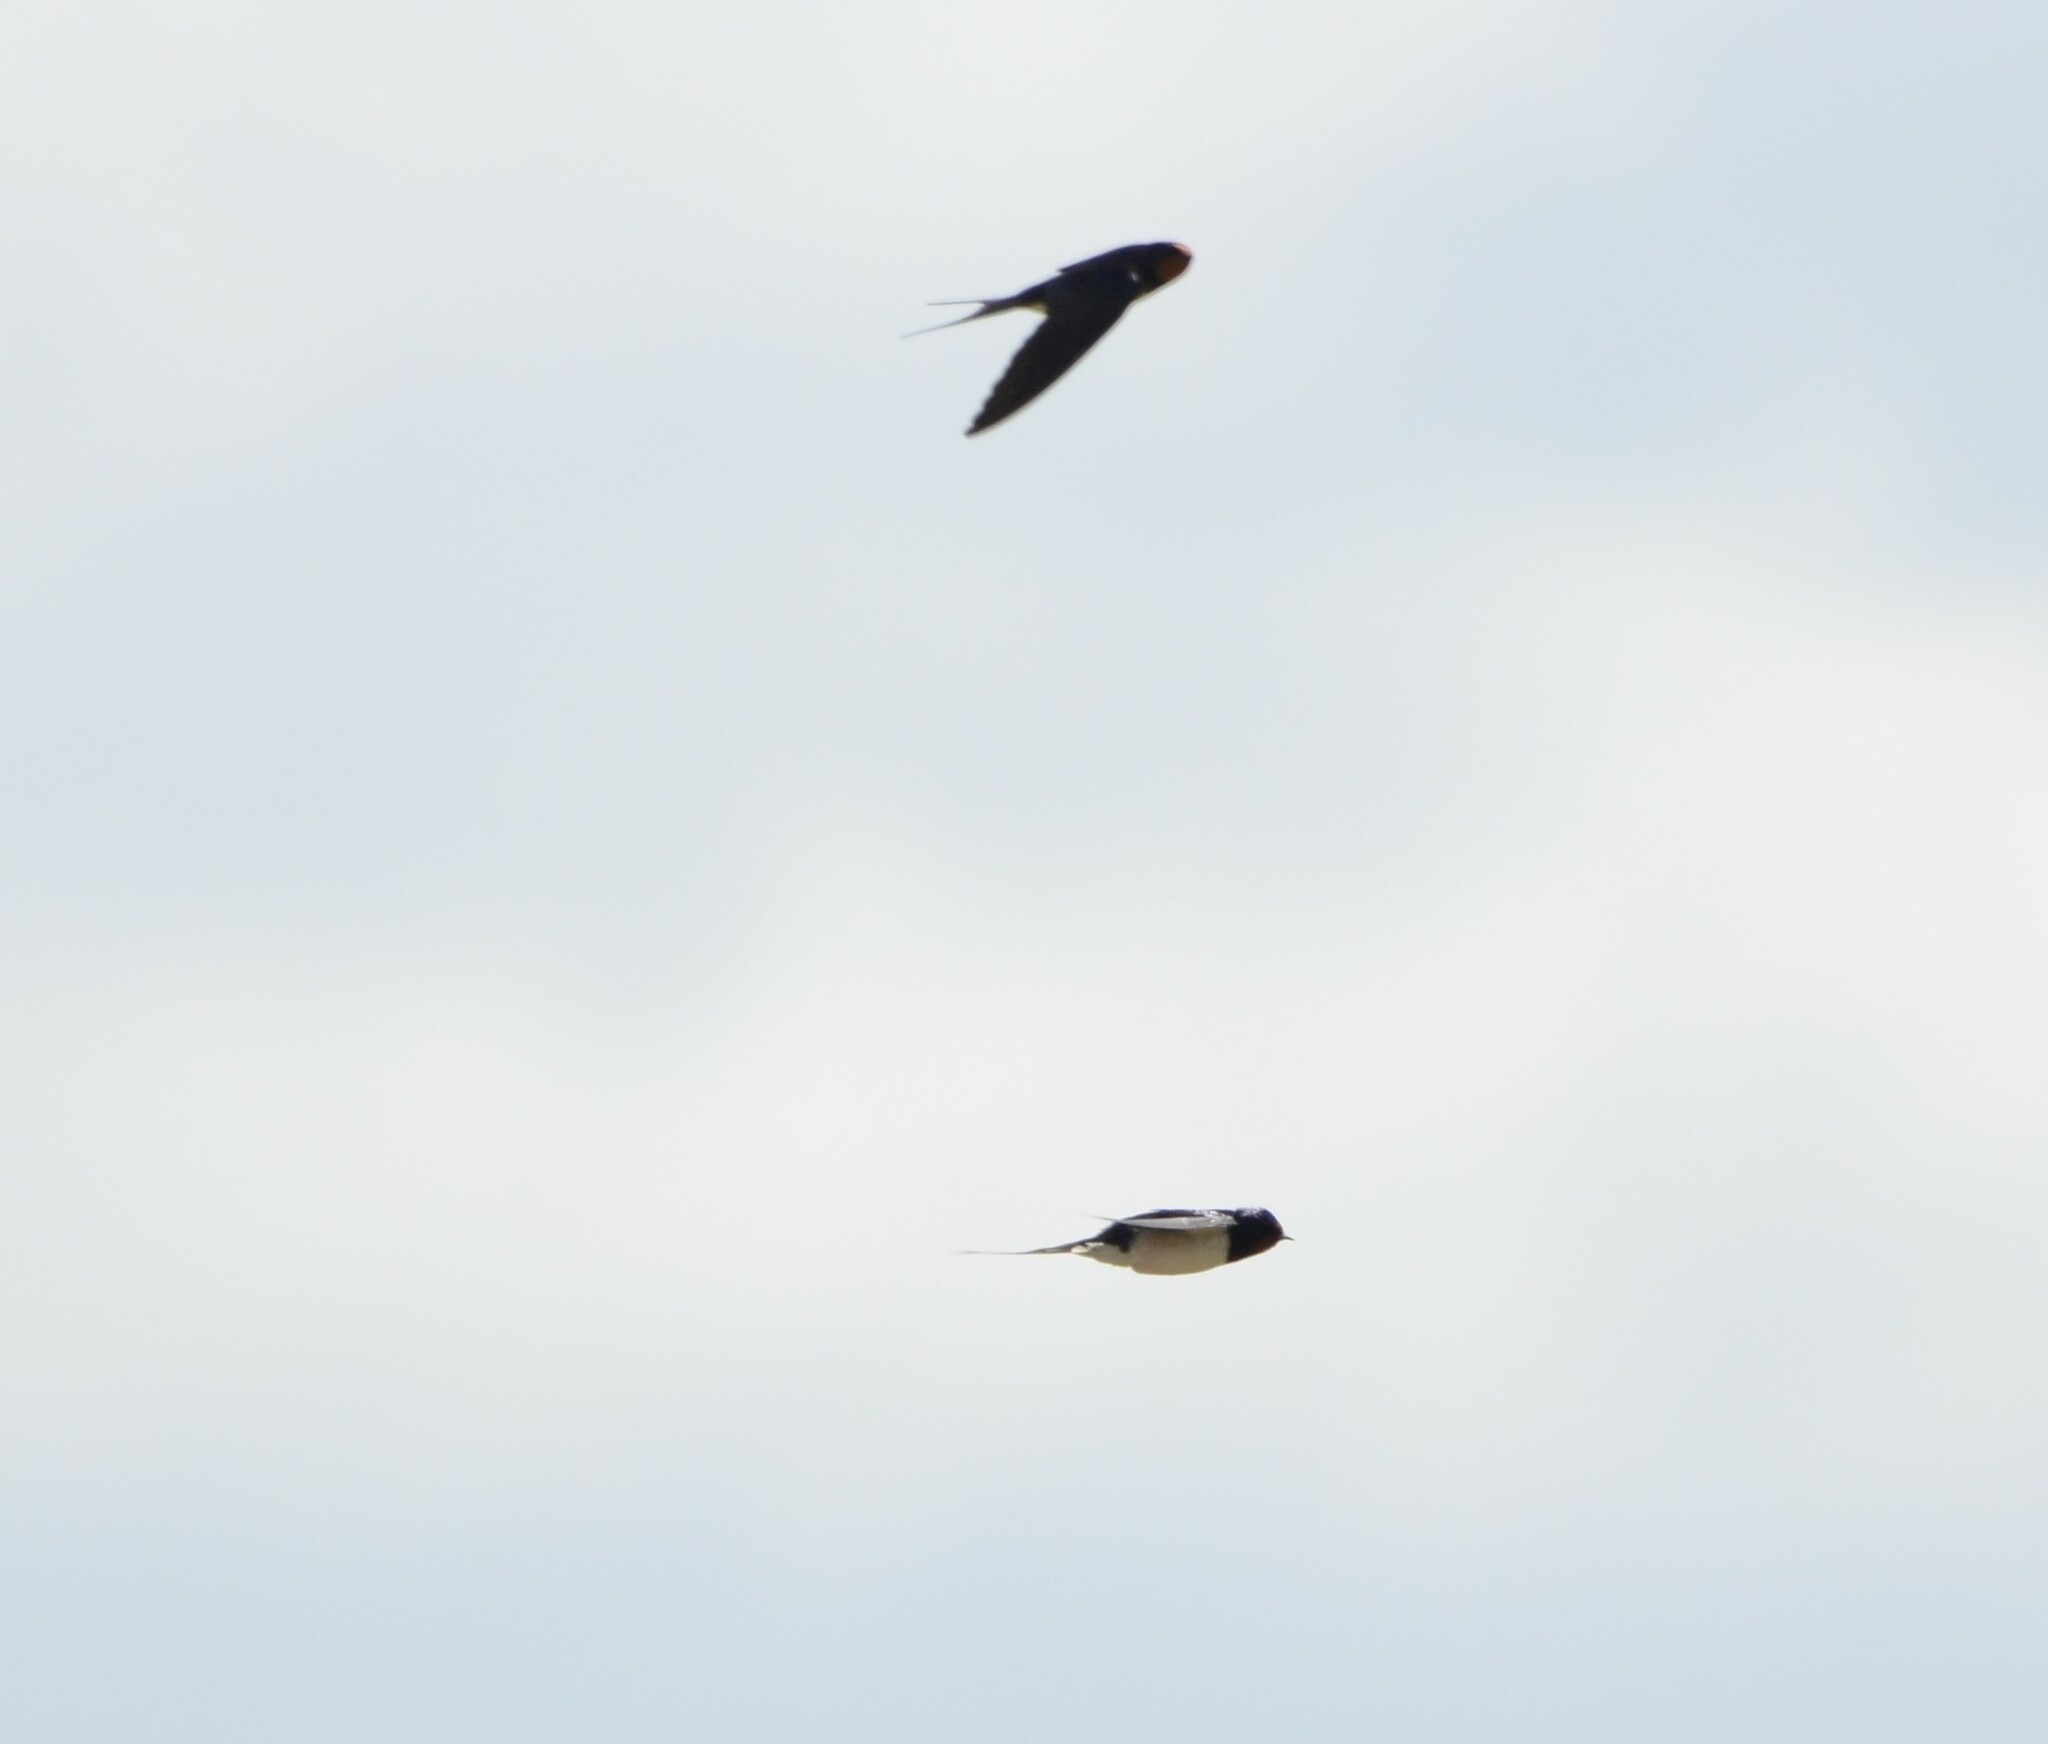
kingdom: Animalia
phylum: Chordata
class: Aves
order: Passeriformes
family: Hirundinidae
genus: Hirundo
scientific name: Hirundo rustica
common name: Barn swallow
